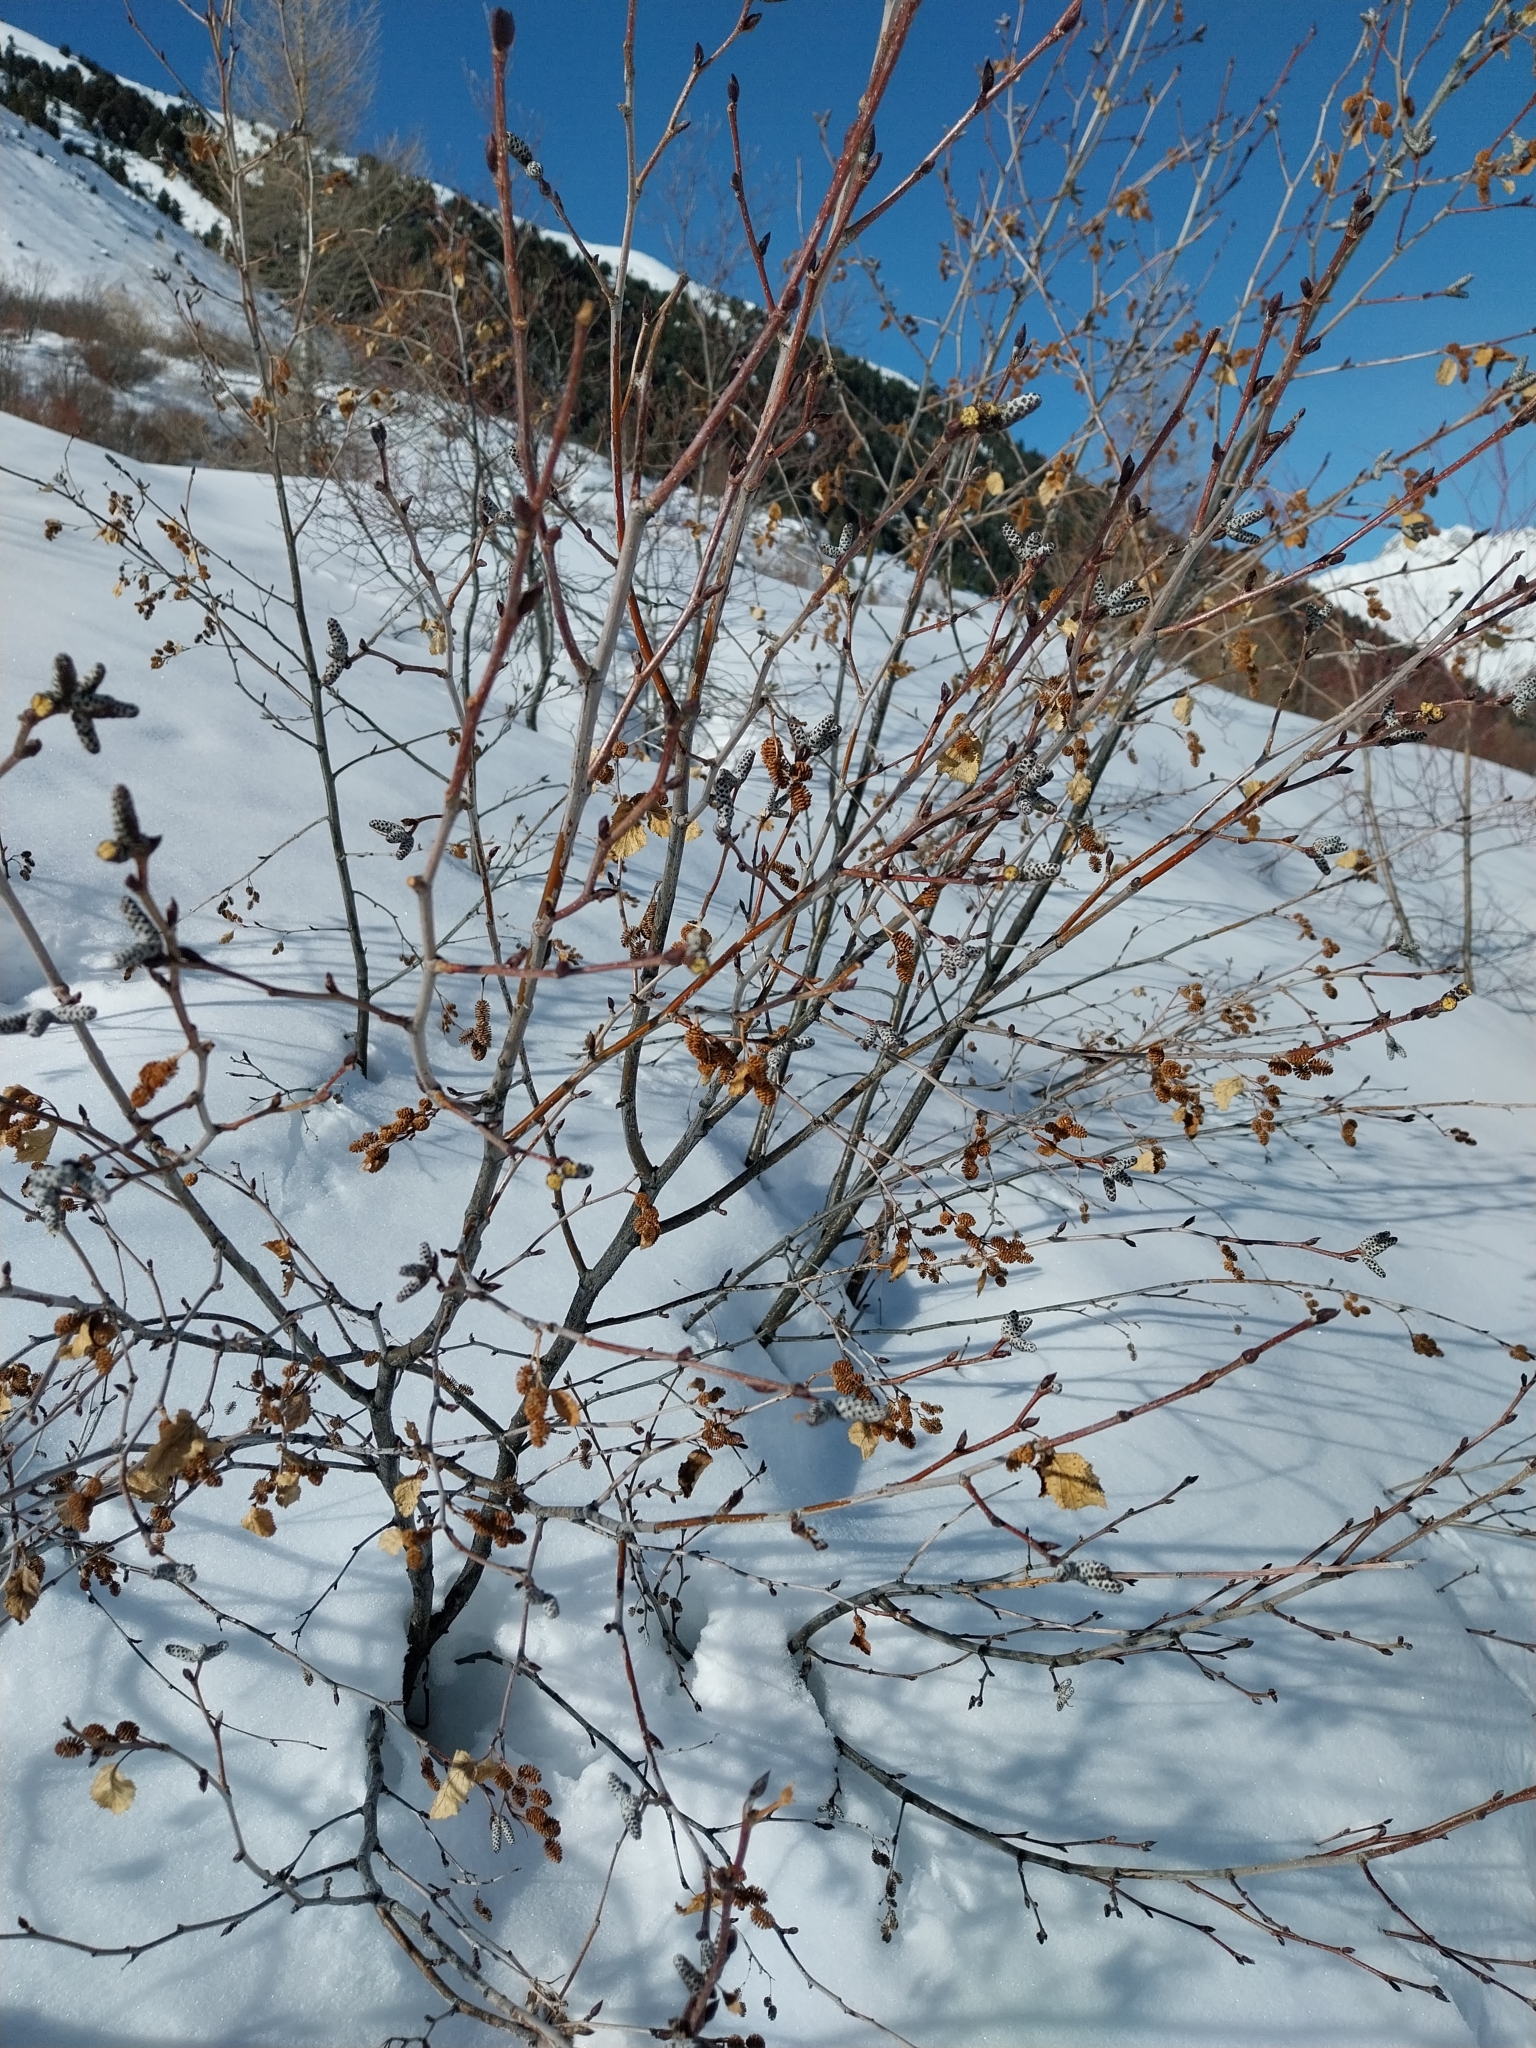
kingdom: Plantae
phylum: Tracheophyta
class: Magnoliopsida
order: Fagales
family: Betulaceae
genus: Alnus
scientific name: Alnus alnobetula
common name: Green alder
